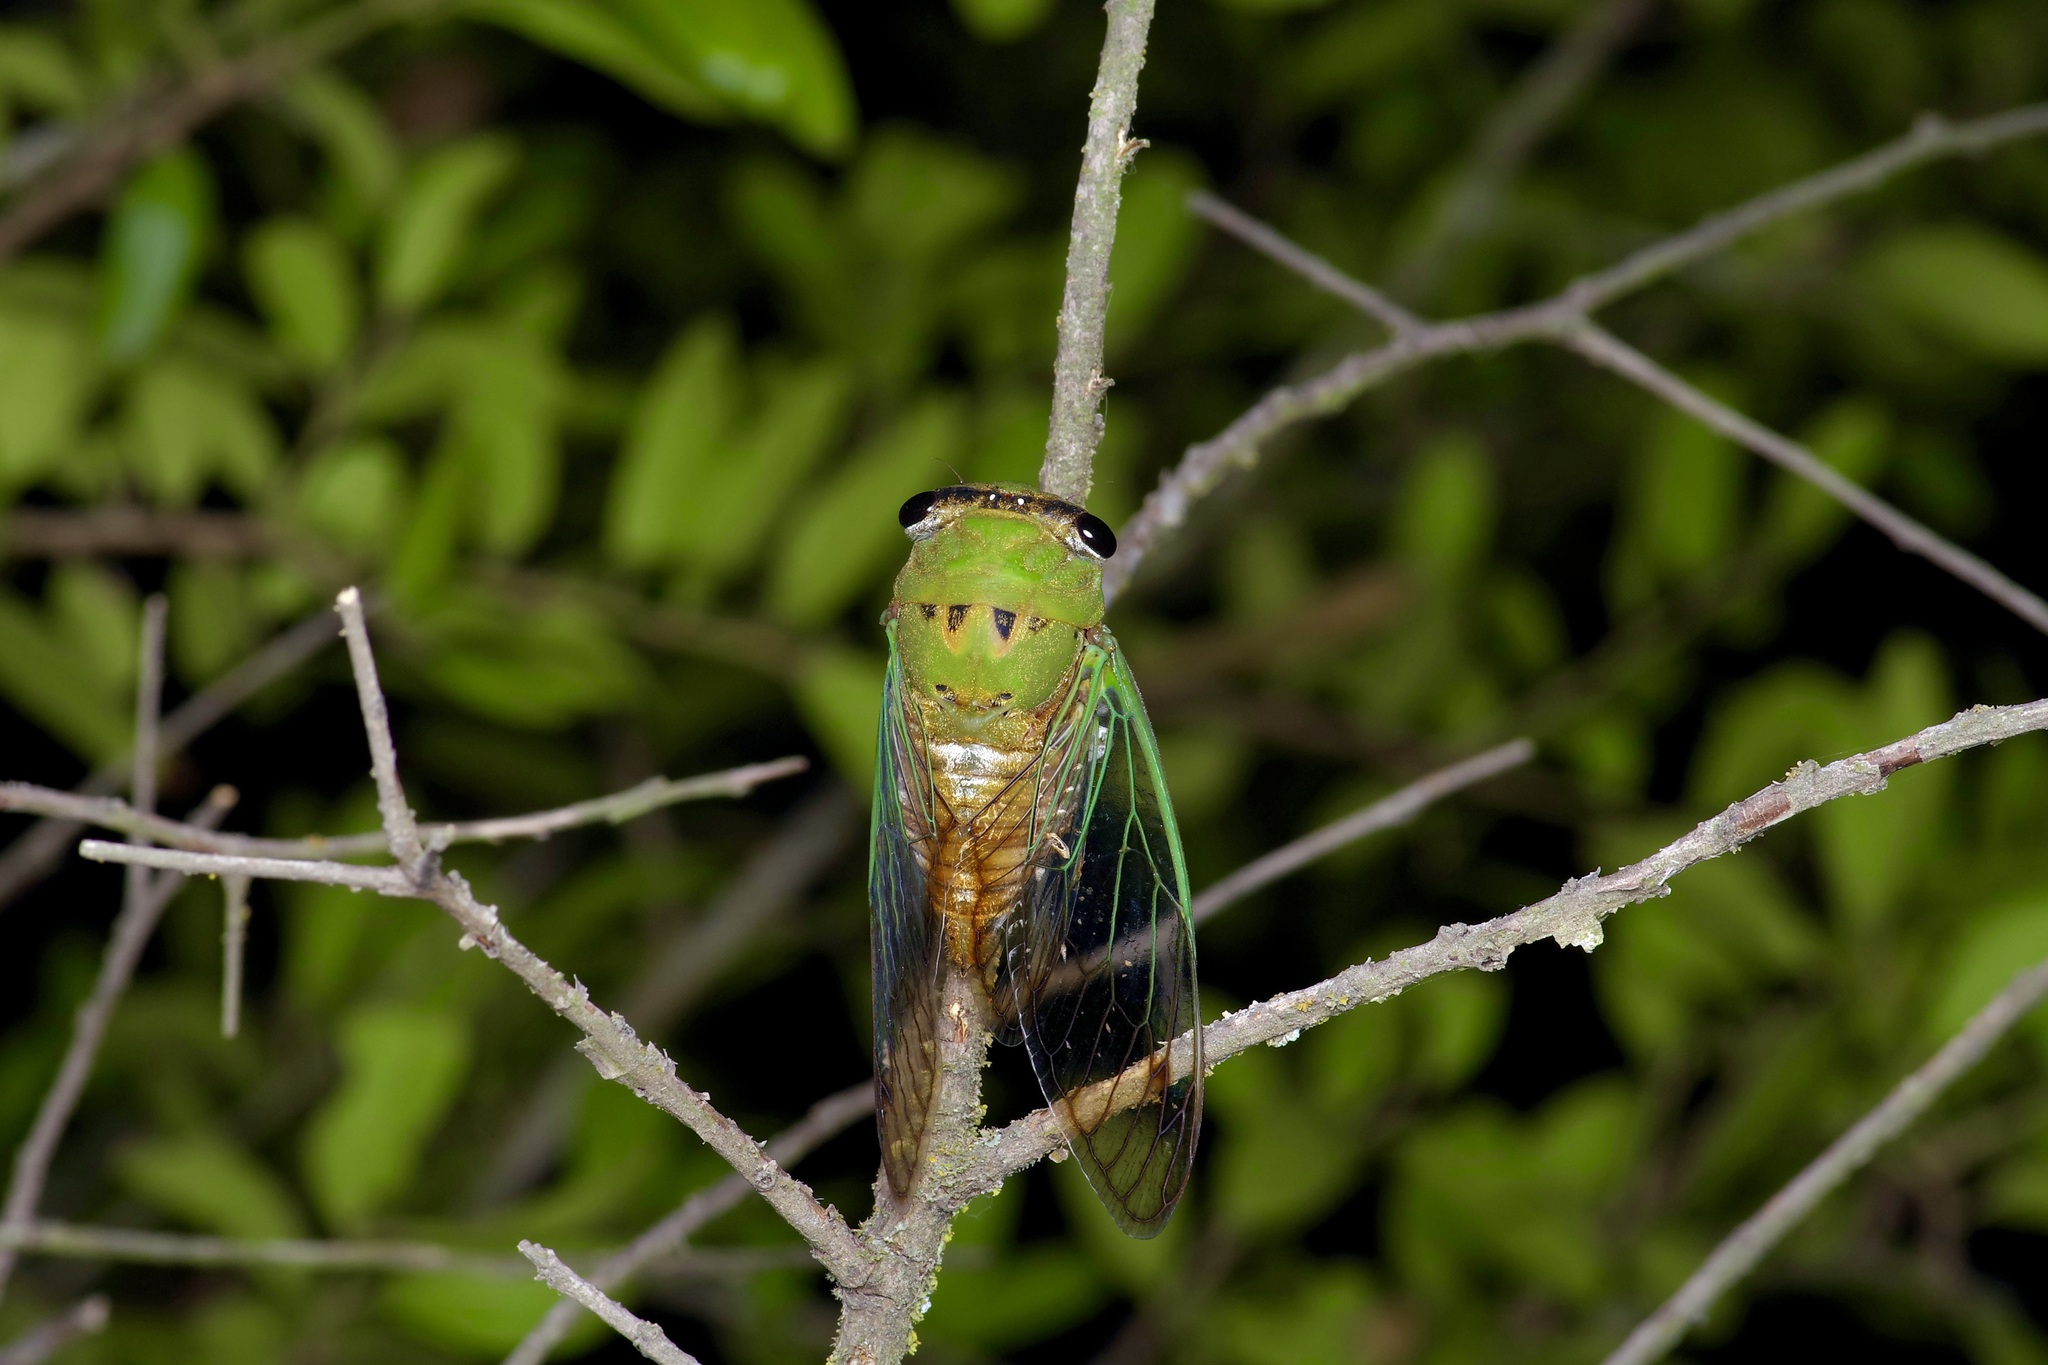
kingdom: Animalia
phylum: Arthropoda
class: Insecta
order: Hemiptera
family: Cicadidae
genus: Neotibicen
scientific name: Neotibicen superbus
